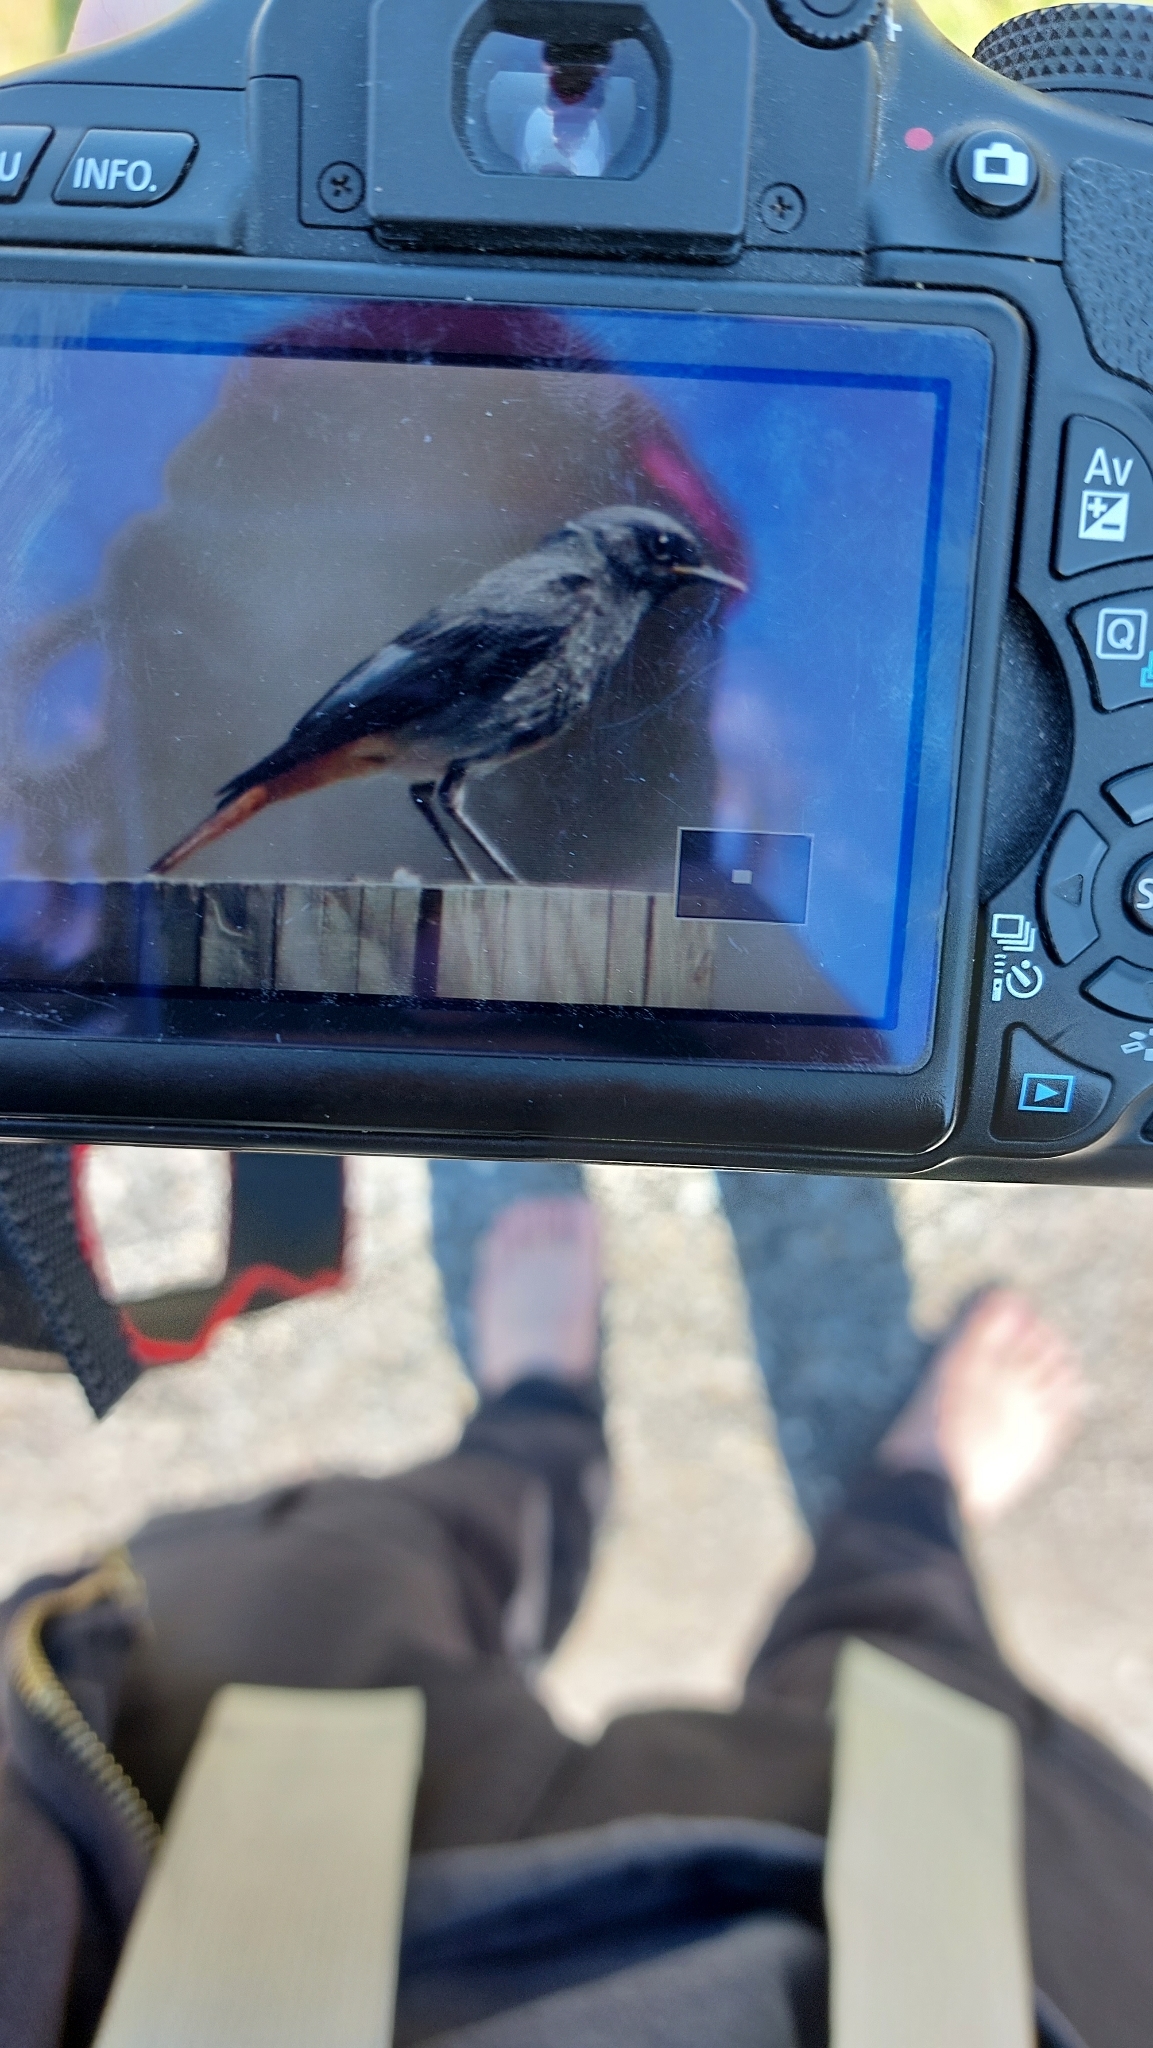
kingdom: Animalia
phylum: Chordata
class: Aves
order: Passeriformes
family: Muscicapidae
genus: Phoenicurus
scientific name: Phoenicurus ochruros
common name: Black redstart
